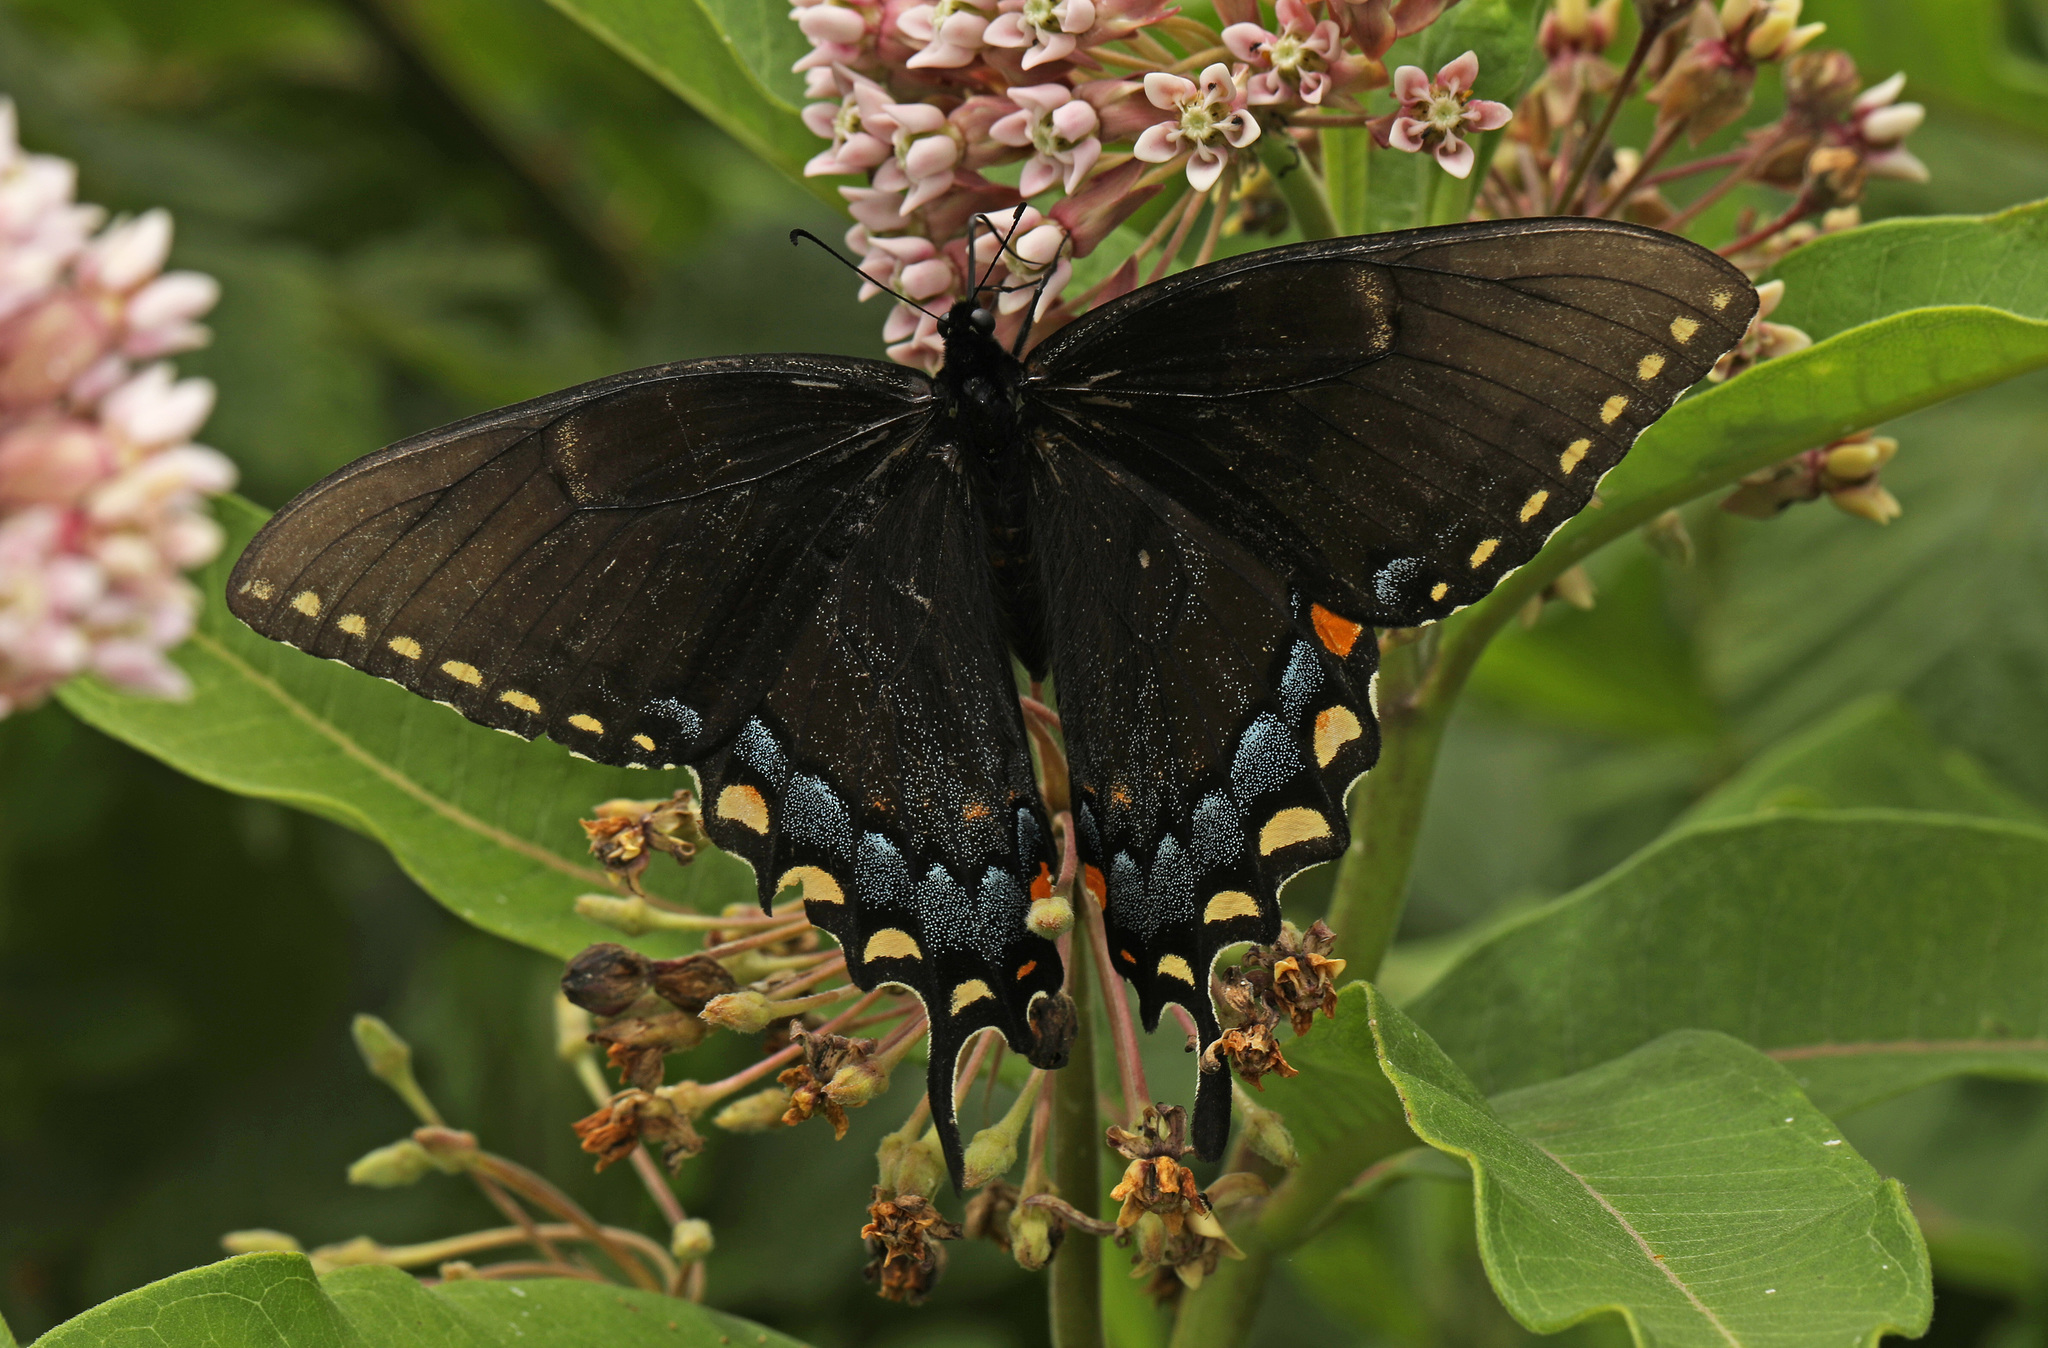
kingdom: Animalia
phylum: Arthropoda
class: Insecta
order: Lepidoptera
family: Papilionidae
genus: Papilio
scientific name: Papilio glaucus
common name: Tiger swallowtail
